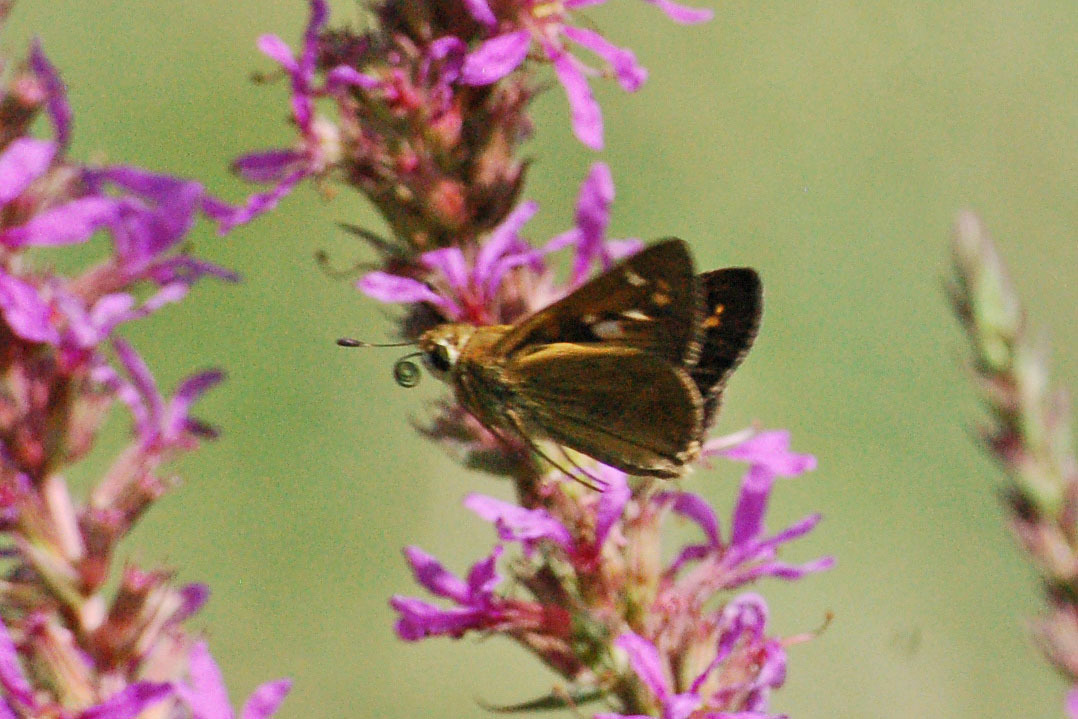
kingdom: Animalia
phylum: Arthropoda
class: Insecta
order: Lepidoptera
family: Hesperiidae
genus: Atalopedes
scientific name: Atalopedes
